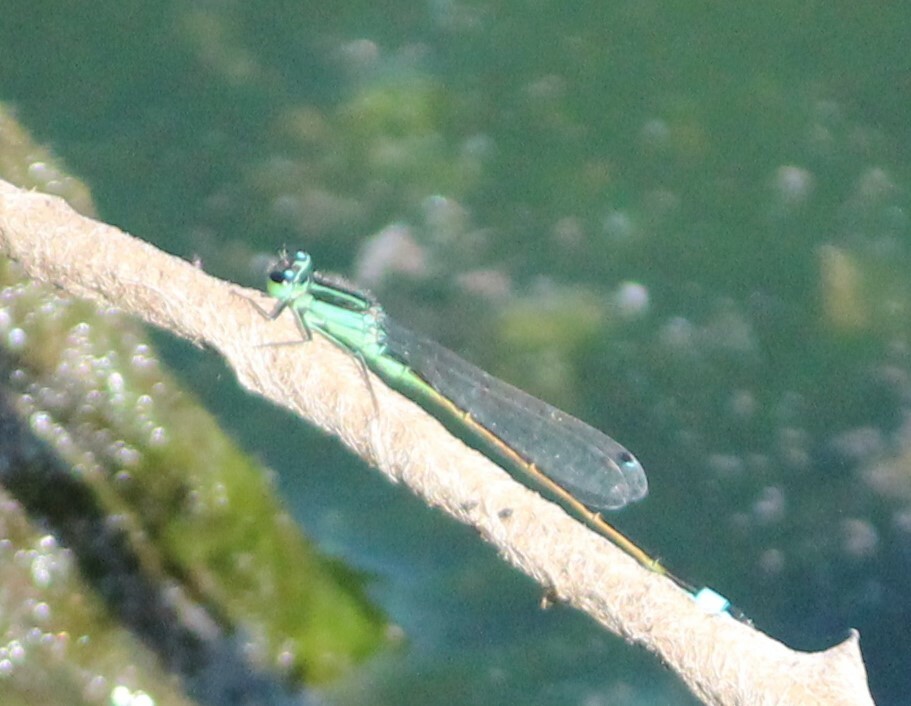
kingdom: Animalia
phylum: Arthropoda
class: Insecta
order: Odonata
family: Coenagrionidae
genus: Ischnura
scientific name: Ischnura ramburii
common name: Rambur's forktail
